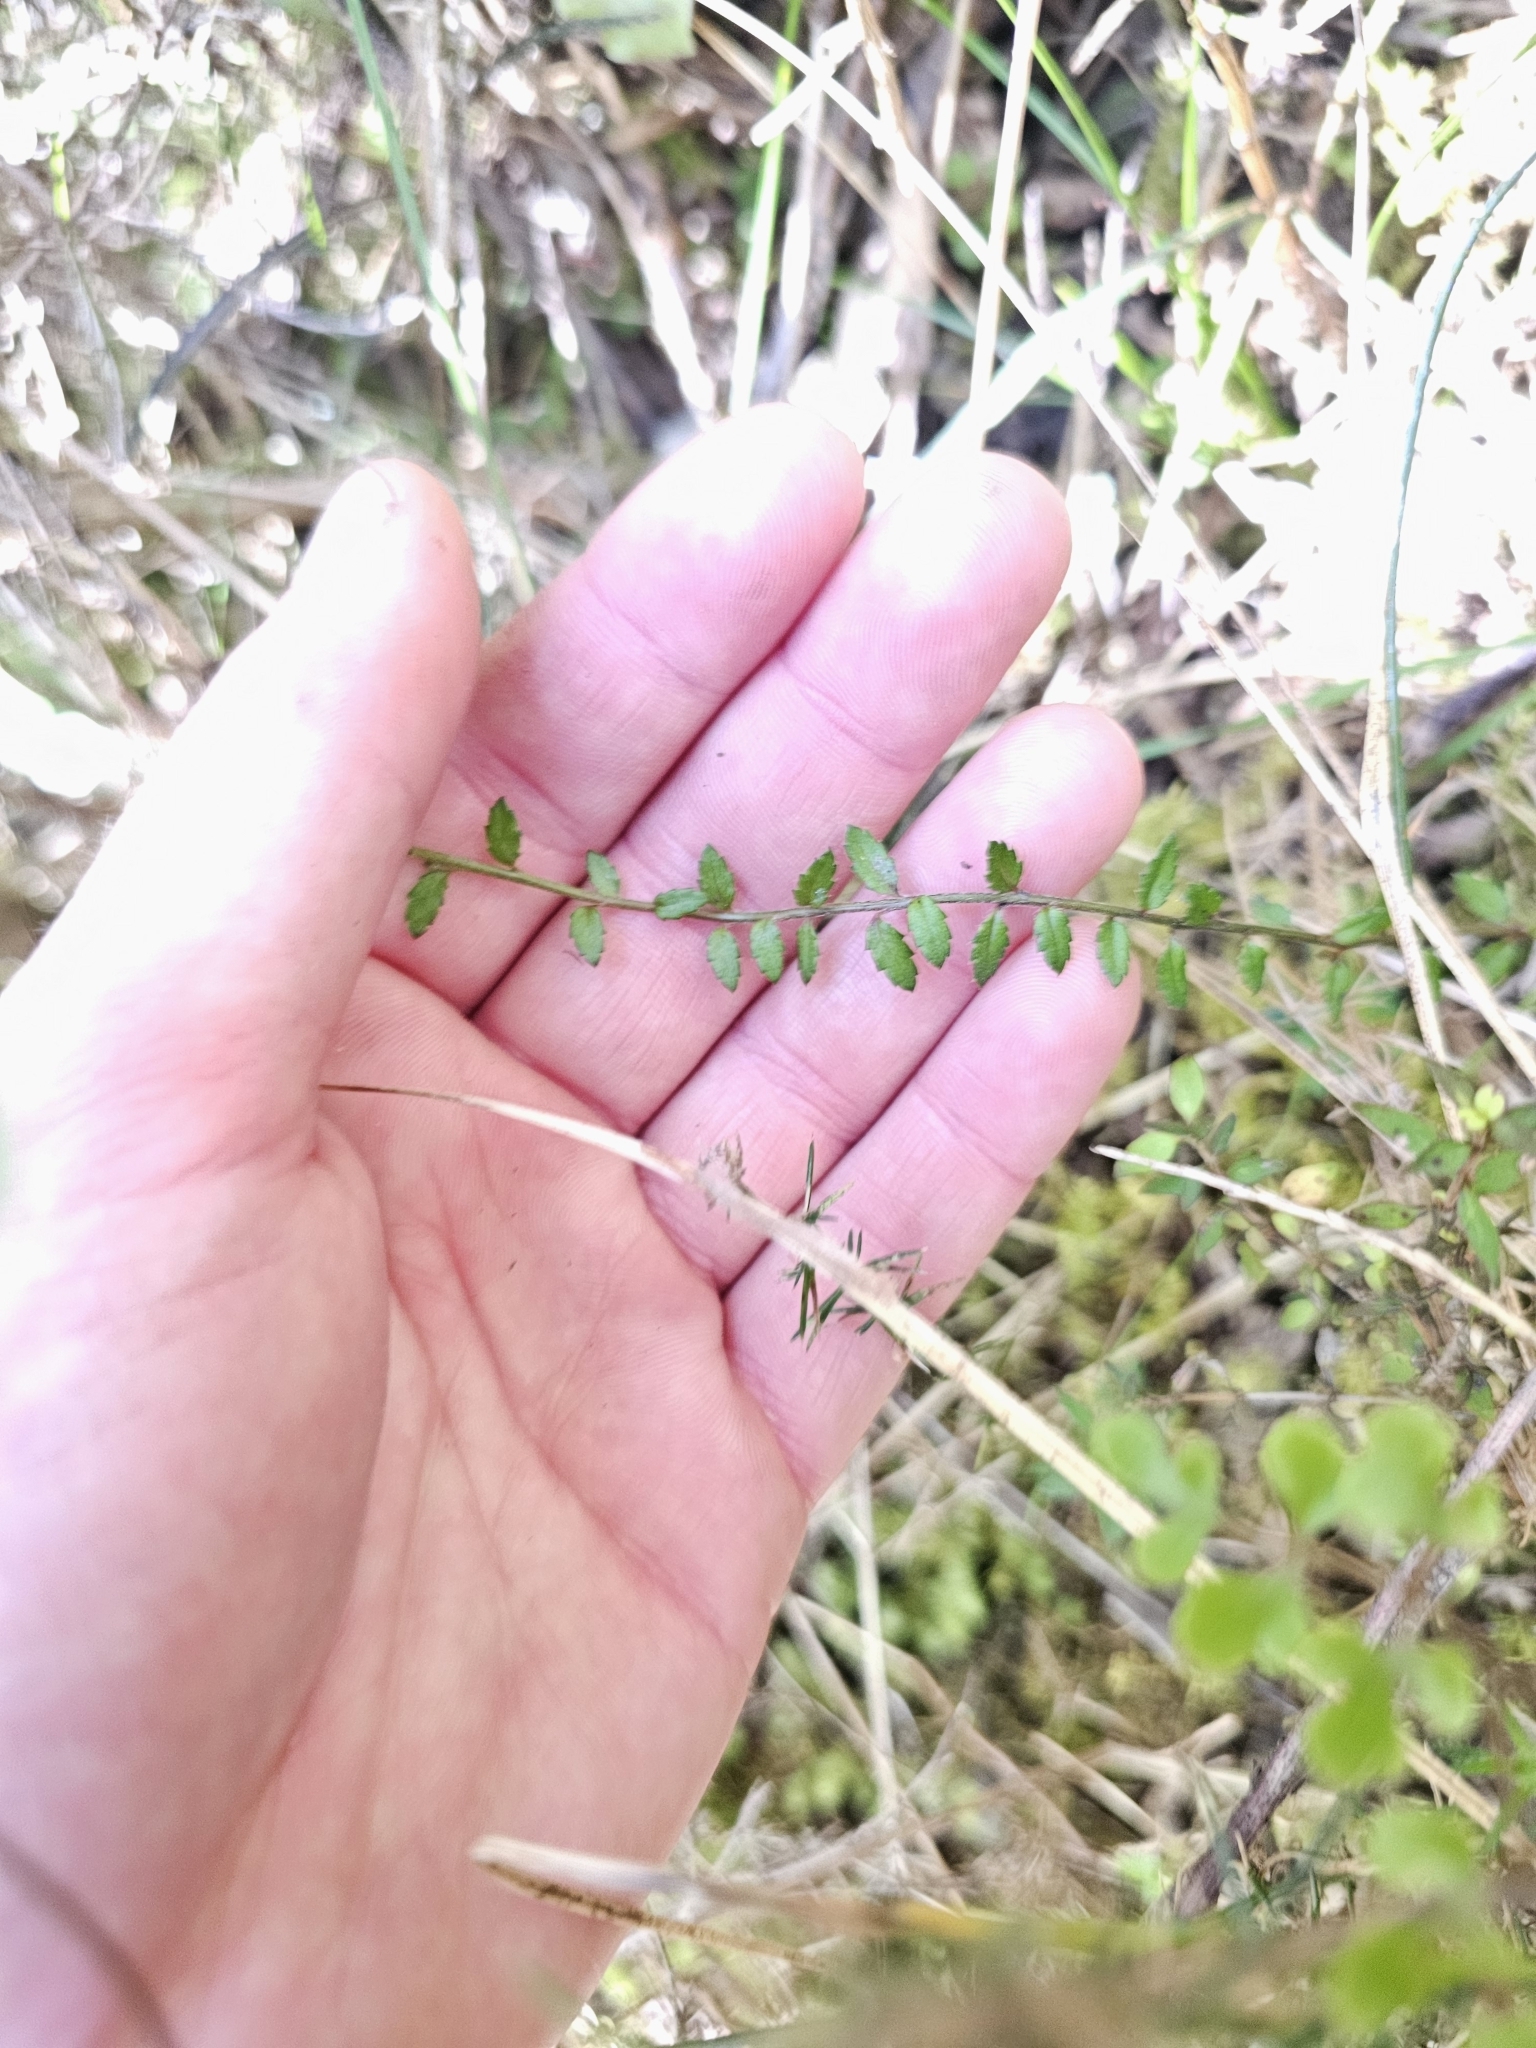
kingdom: Plantae
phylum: Tracheophyta
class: Magnoliopsida
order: Saxifragales
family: Haloragaceae
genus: Gonocarpus
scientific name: Gonocarpus incanus
